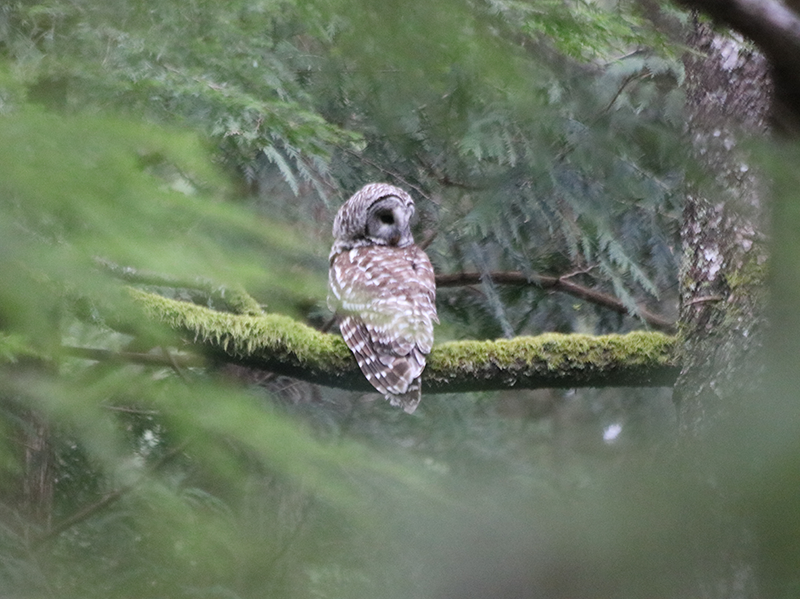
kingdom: Animalia
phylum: Chordata
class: Aves
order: Strigiformes
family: Strigidae
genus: Strix
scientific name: Strix varia
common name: Barred owl
